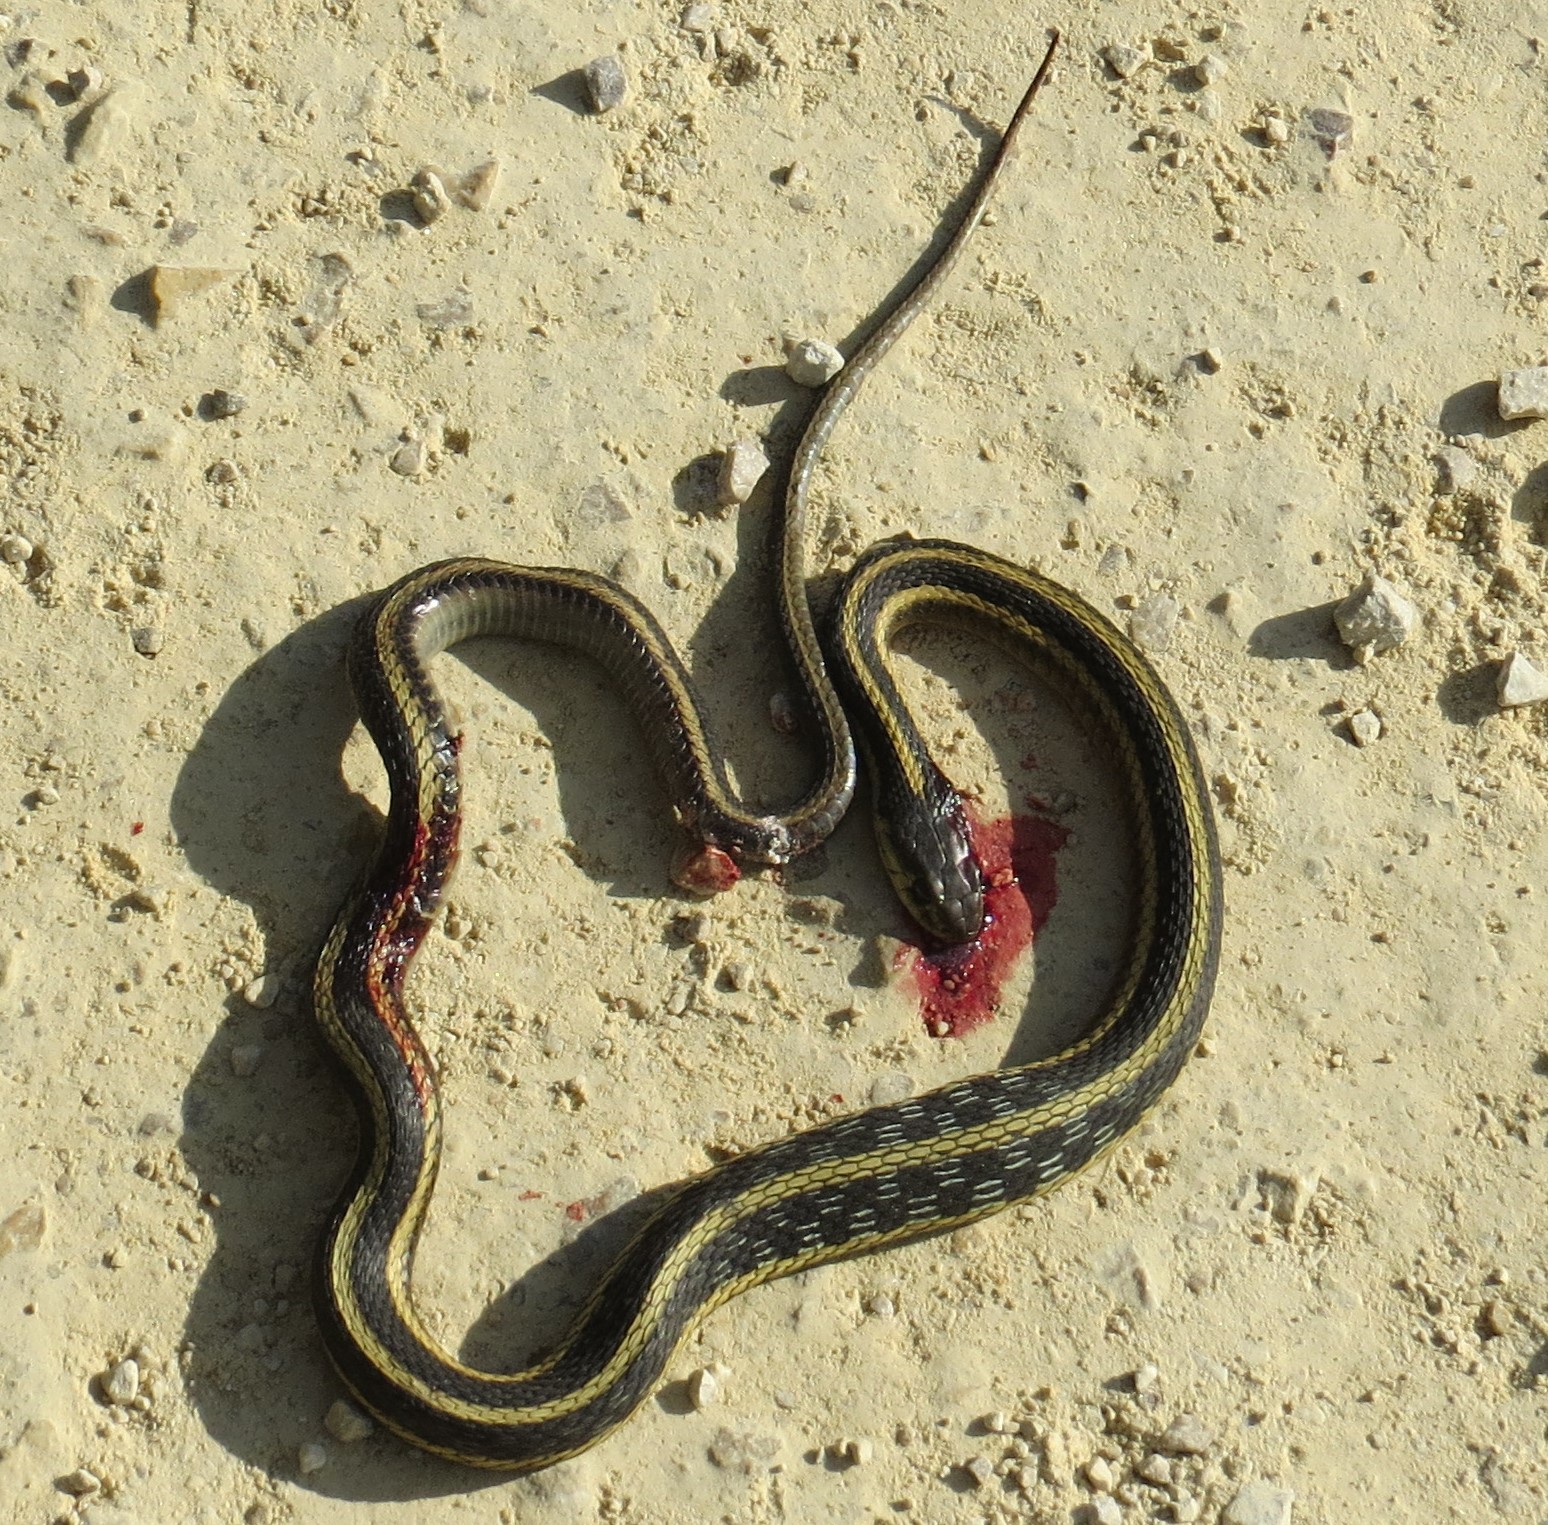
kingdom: Animalia
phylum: Chordata
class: Squamata
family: Colubridae
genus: Thamnophis
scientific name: Thamnophis sirtalis
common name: Common garter snake
